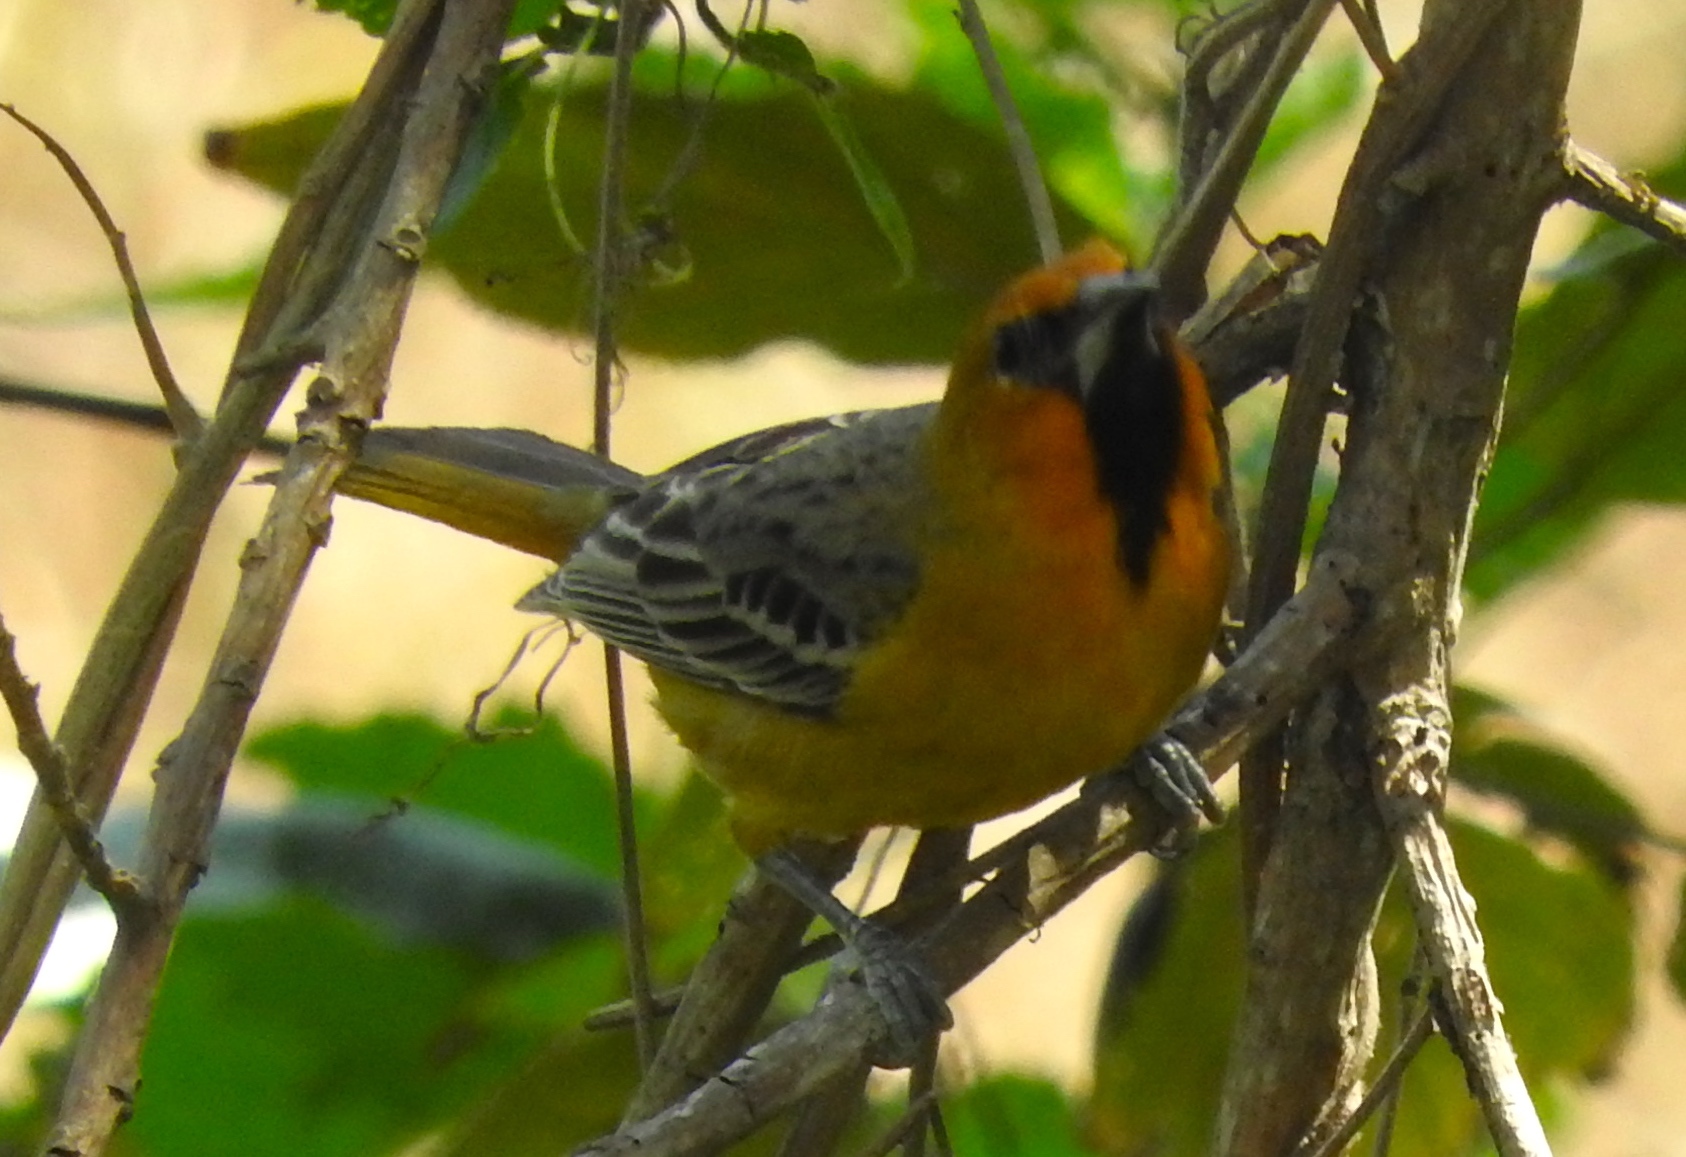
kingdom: Animalia
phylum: Chordata
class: Aves
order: Passeriformes
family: Icteridae
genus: Icterus
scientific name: Icterus pustulatus
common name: Streak-backed oriole
